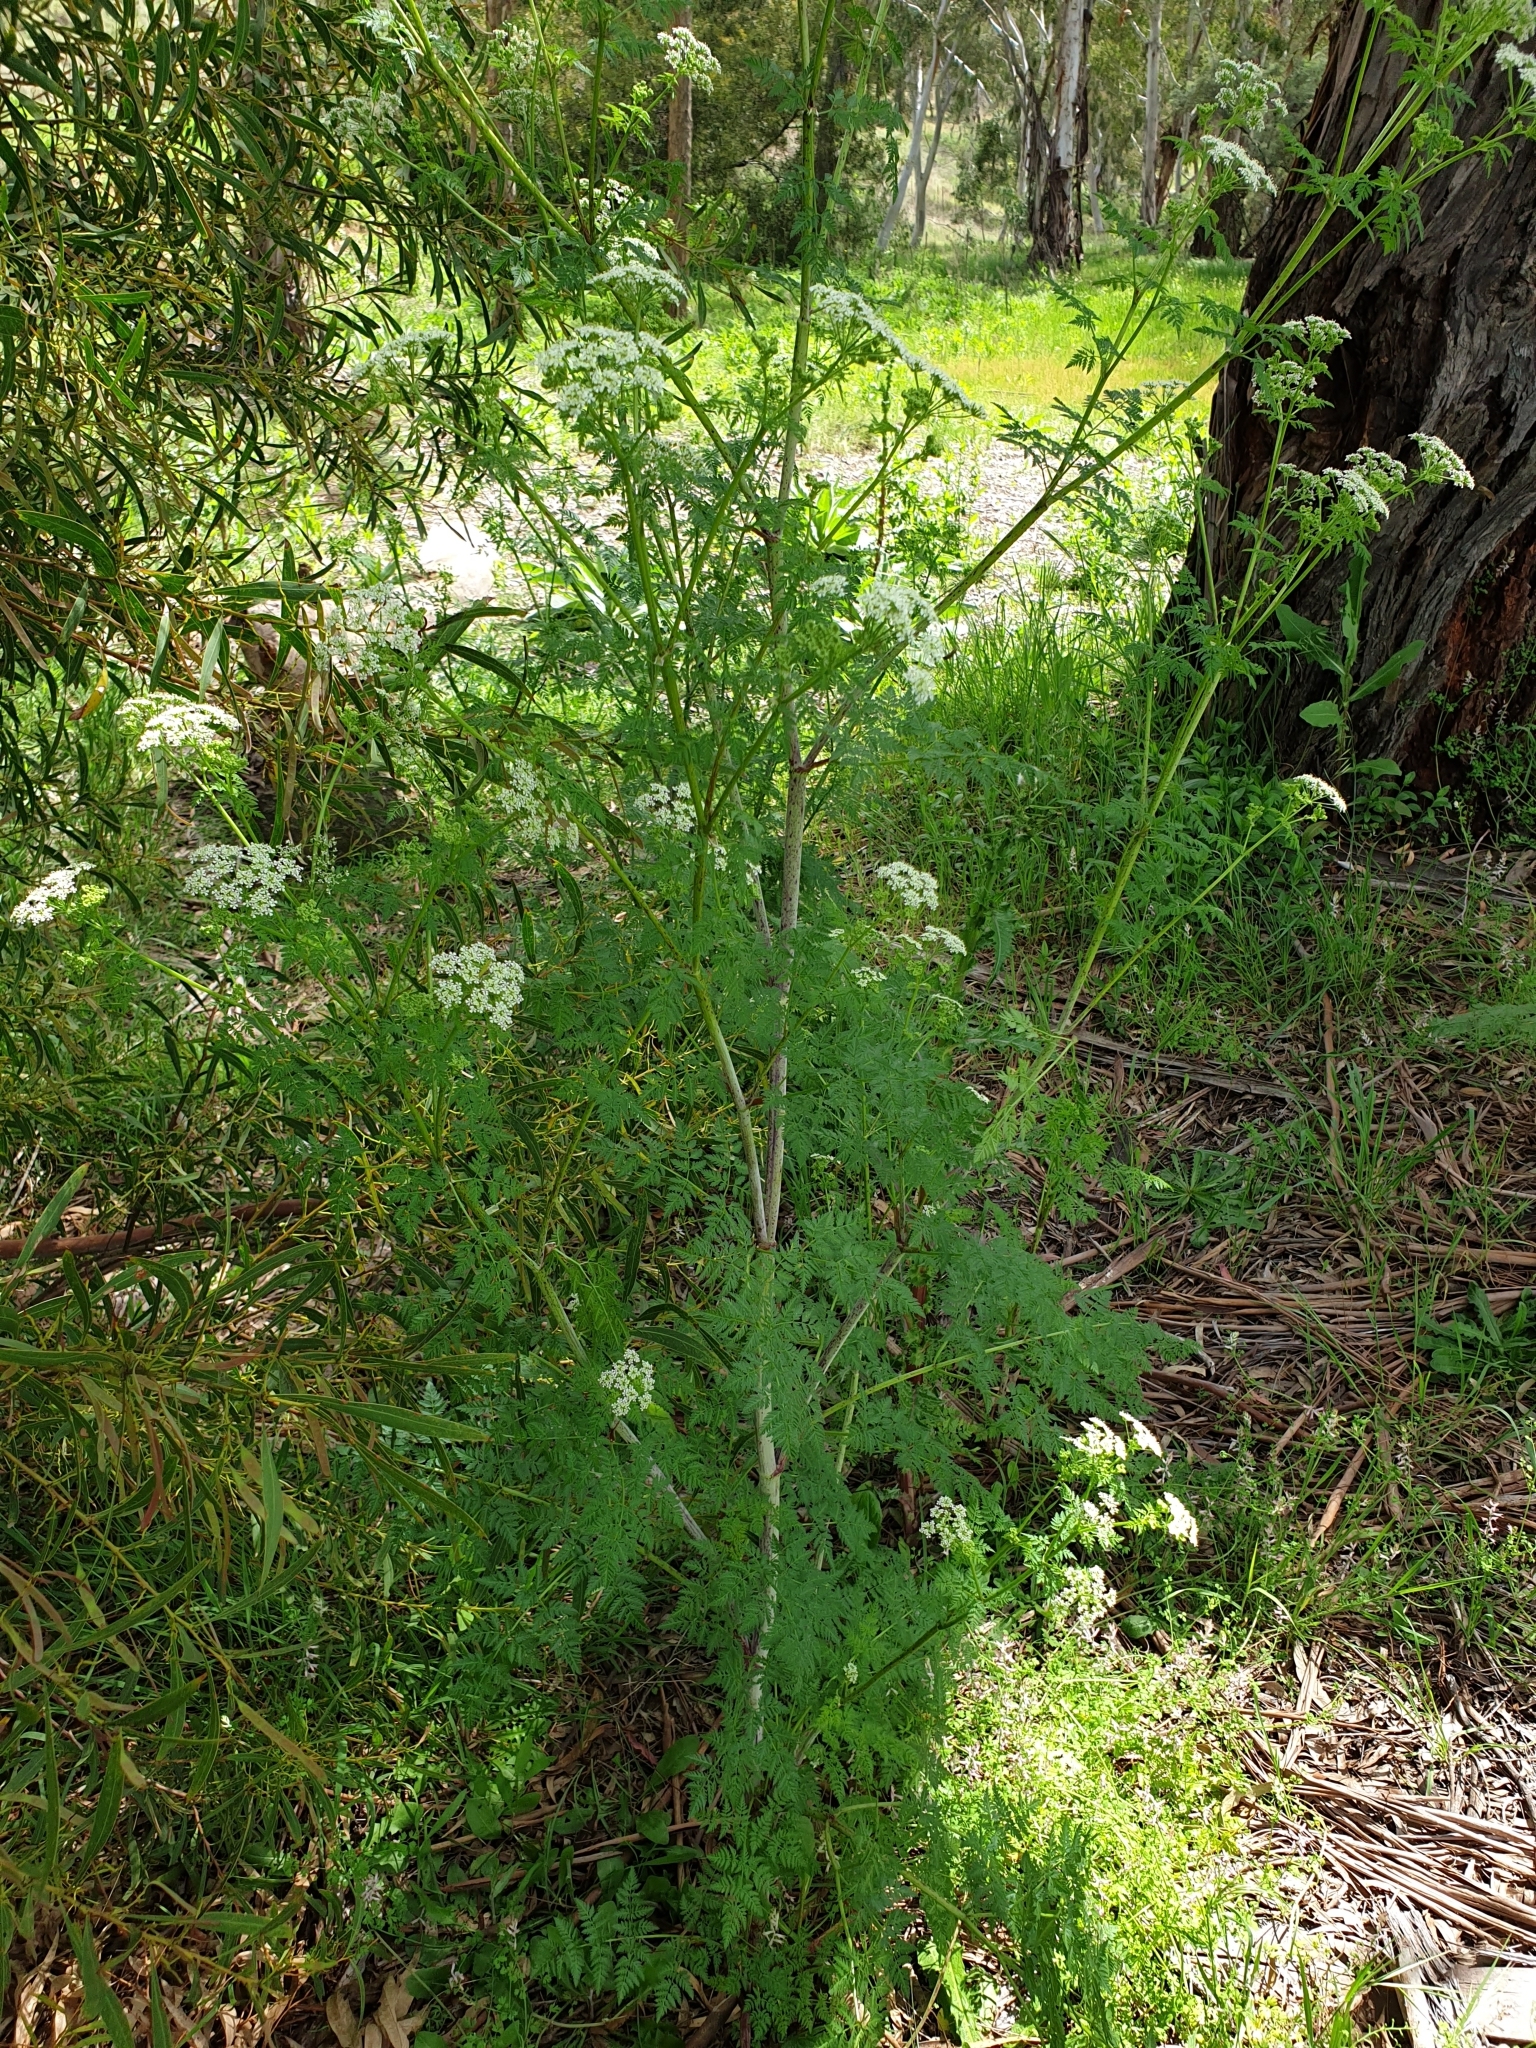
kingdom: Plantae
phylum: Tracheophyta
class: Magnoliopsida
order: Apiales
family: Apiaceae
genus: Conium
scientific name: Conium maculatum
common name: Hemlock
